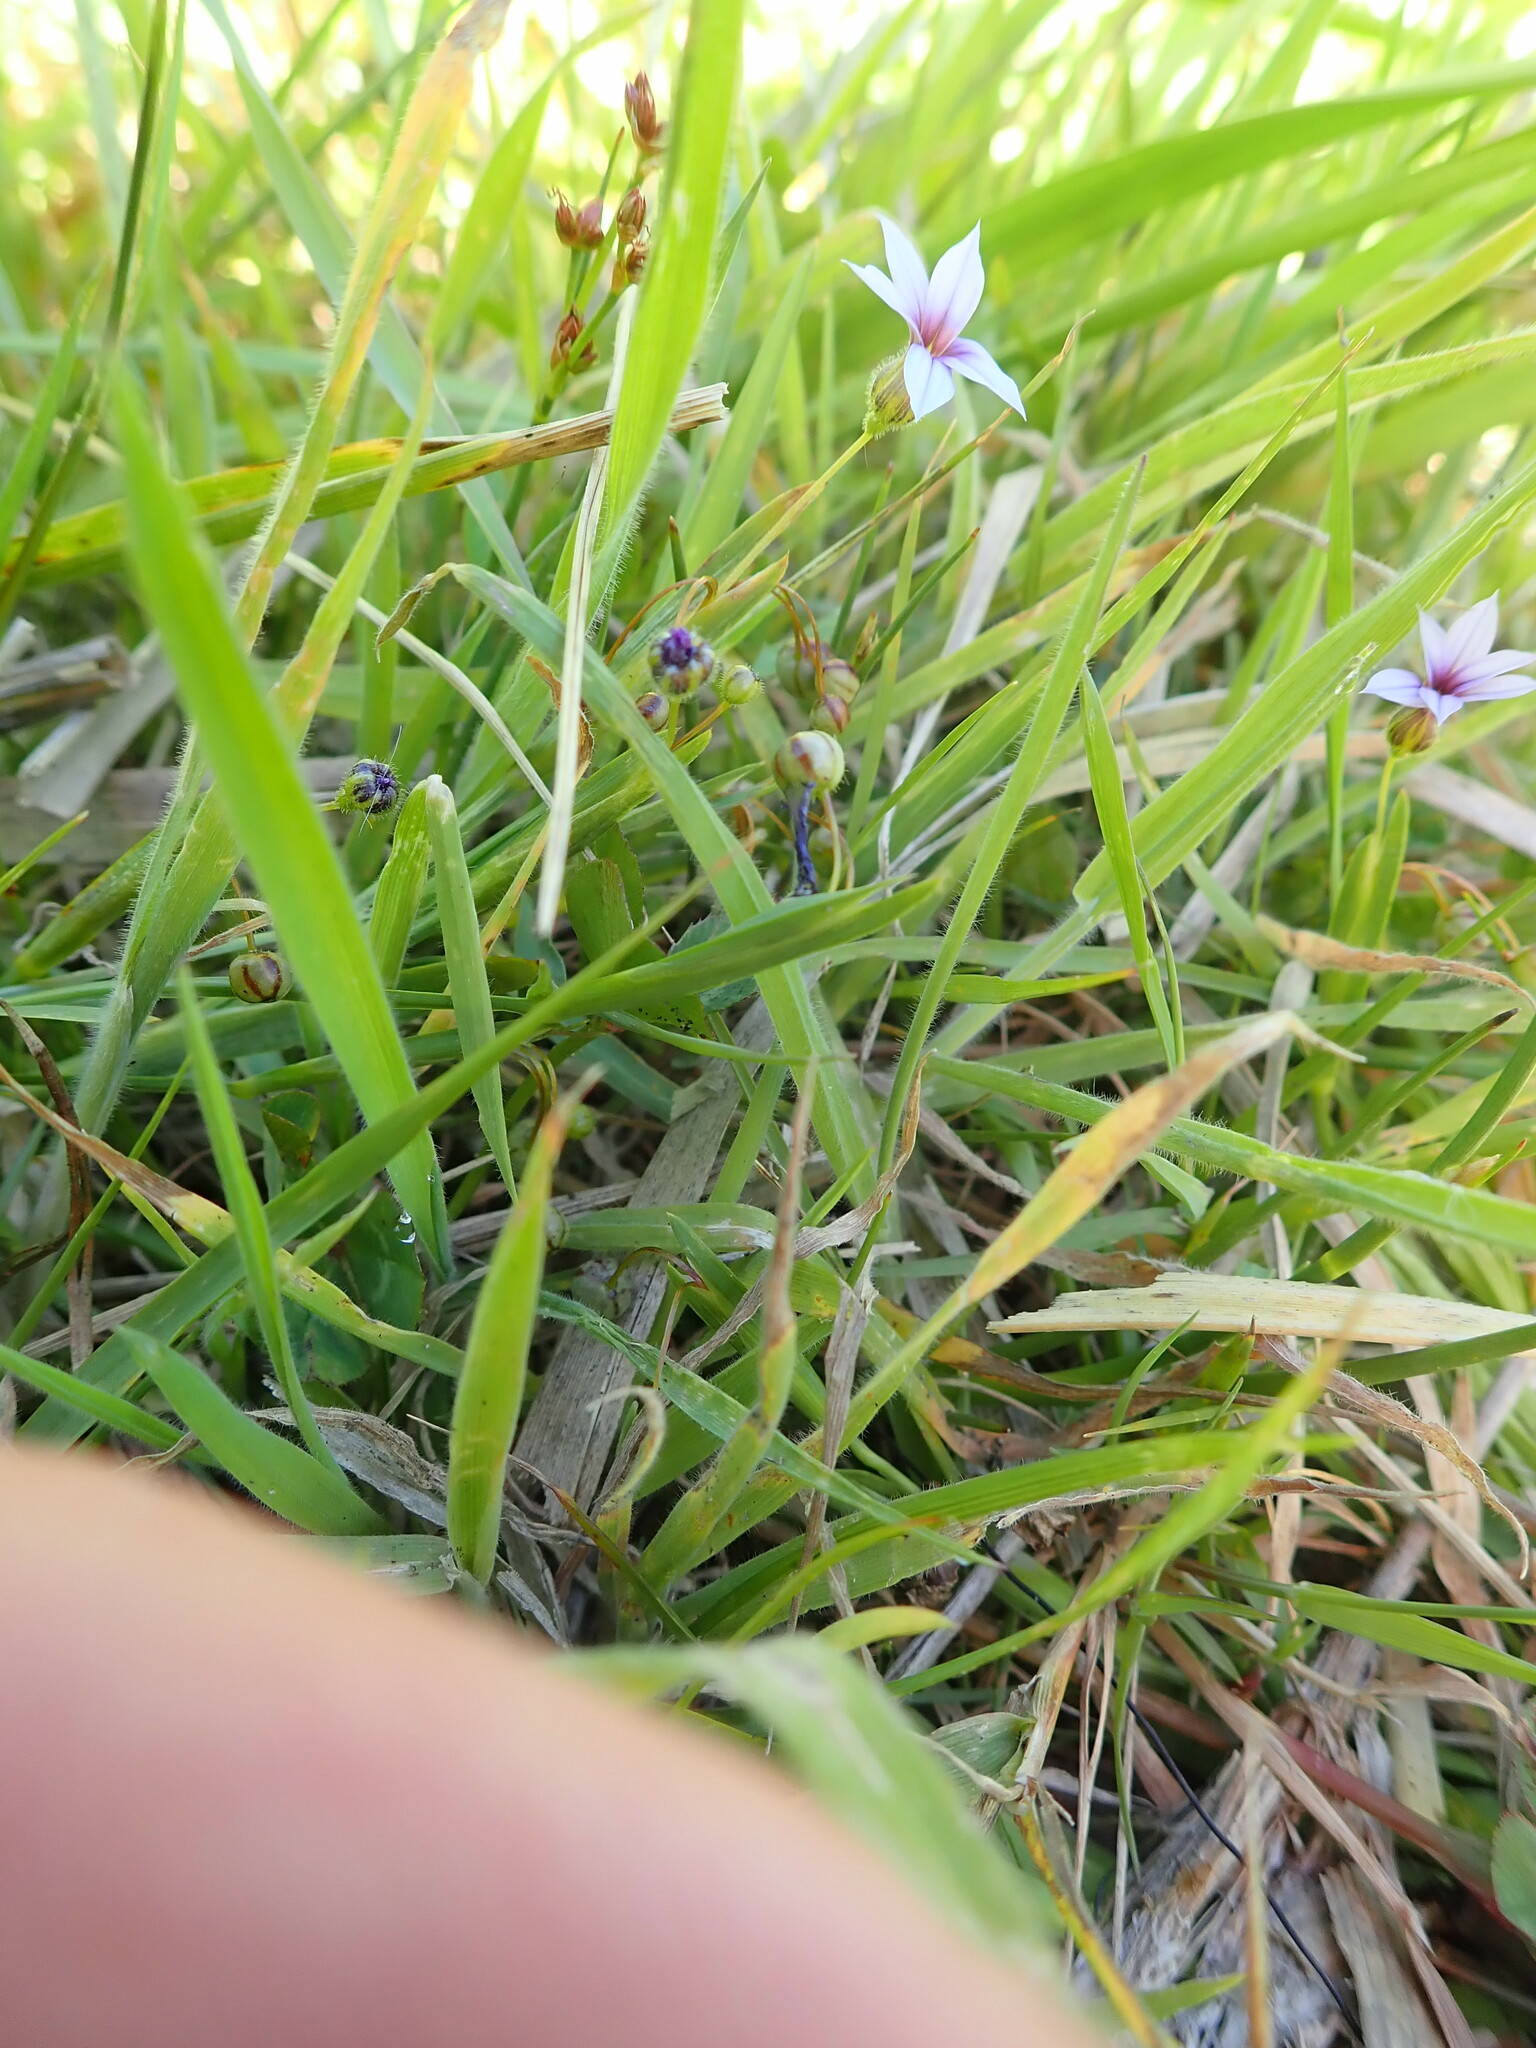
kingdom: Plantae
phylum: Tracheophyta
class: Liliopsida
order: Asparagales
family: Iridaceae
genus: Sisyrinchium
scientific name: Sisyrinchium micranthum
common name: Bermuda pigroot
